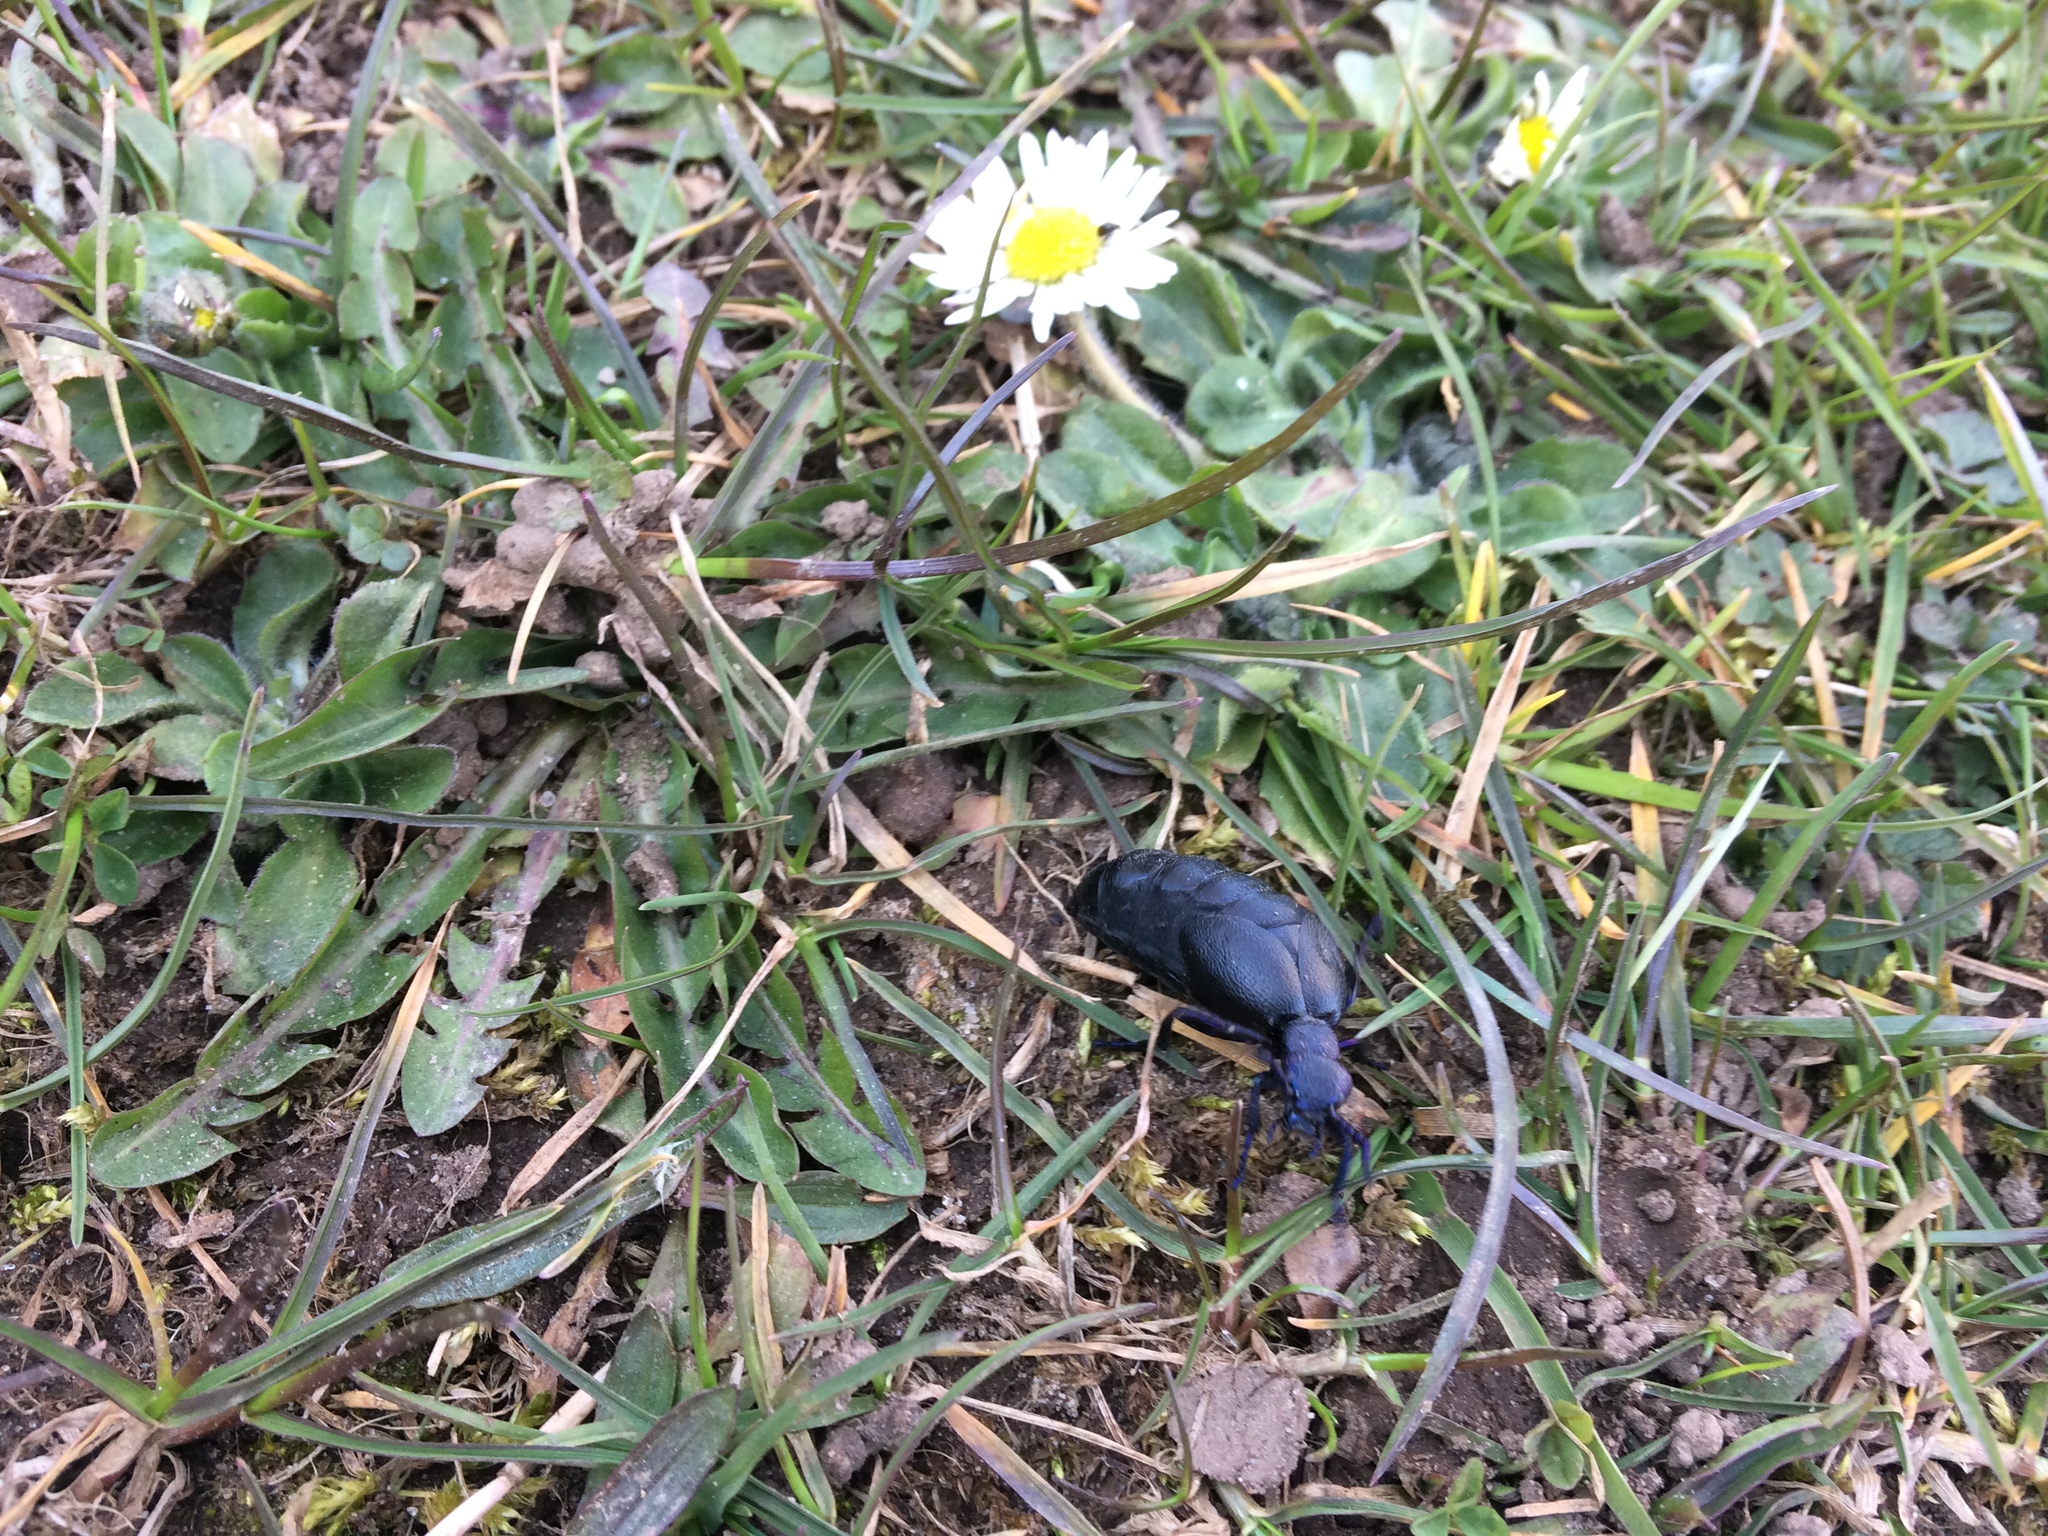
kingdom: Animalia
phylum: Arthropoda
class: Insecta
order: Coleoptera
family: Meloidae
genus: Meloe
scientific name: Meloe proscarabaeus
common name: Black oil-beetle
